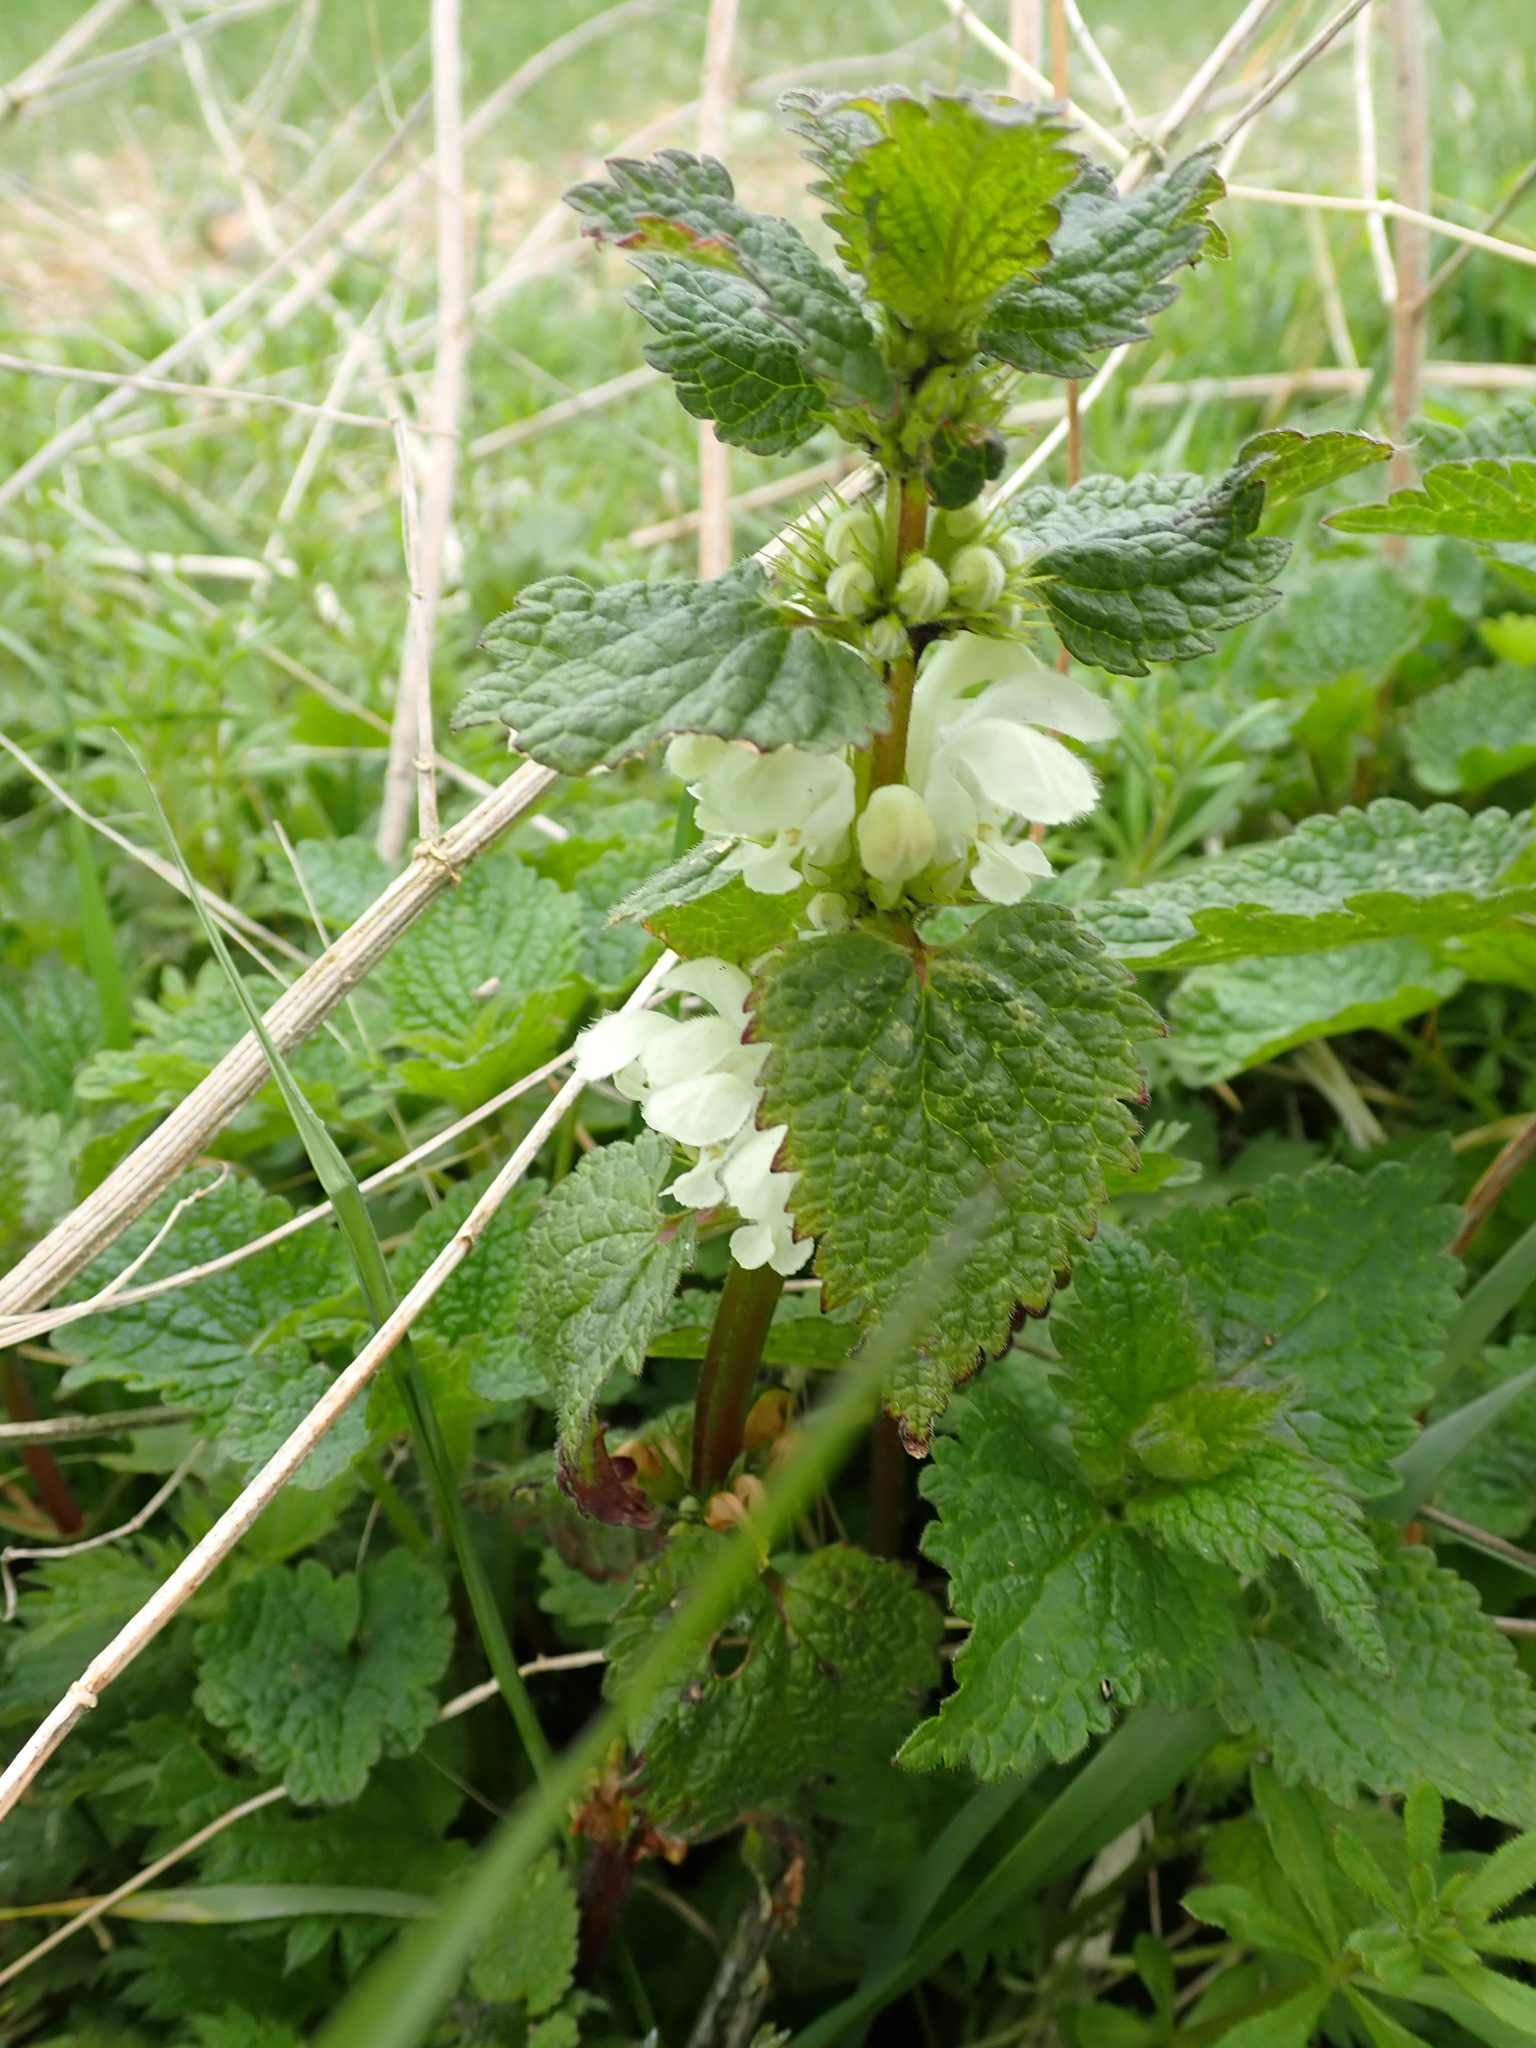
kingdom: Plantae
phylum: Tracheophyta
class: Magnoliopsida
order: Lamiales
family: Lamiaceae
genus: Lamium
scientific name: Lamium album
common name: White dead-nettle
